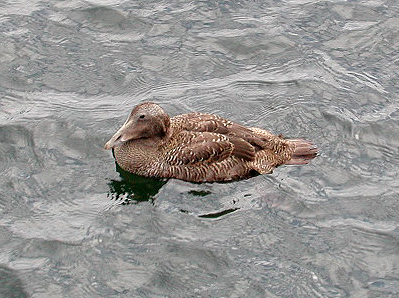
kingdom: Animalia
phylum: Chordata
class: Aves
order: Anseriformes
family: Anatidae
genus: Somateria
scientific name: Somateria mollissima
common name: Common eider
